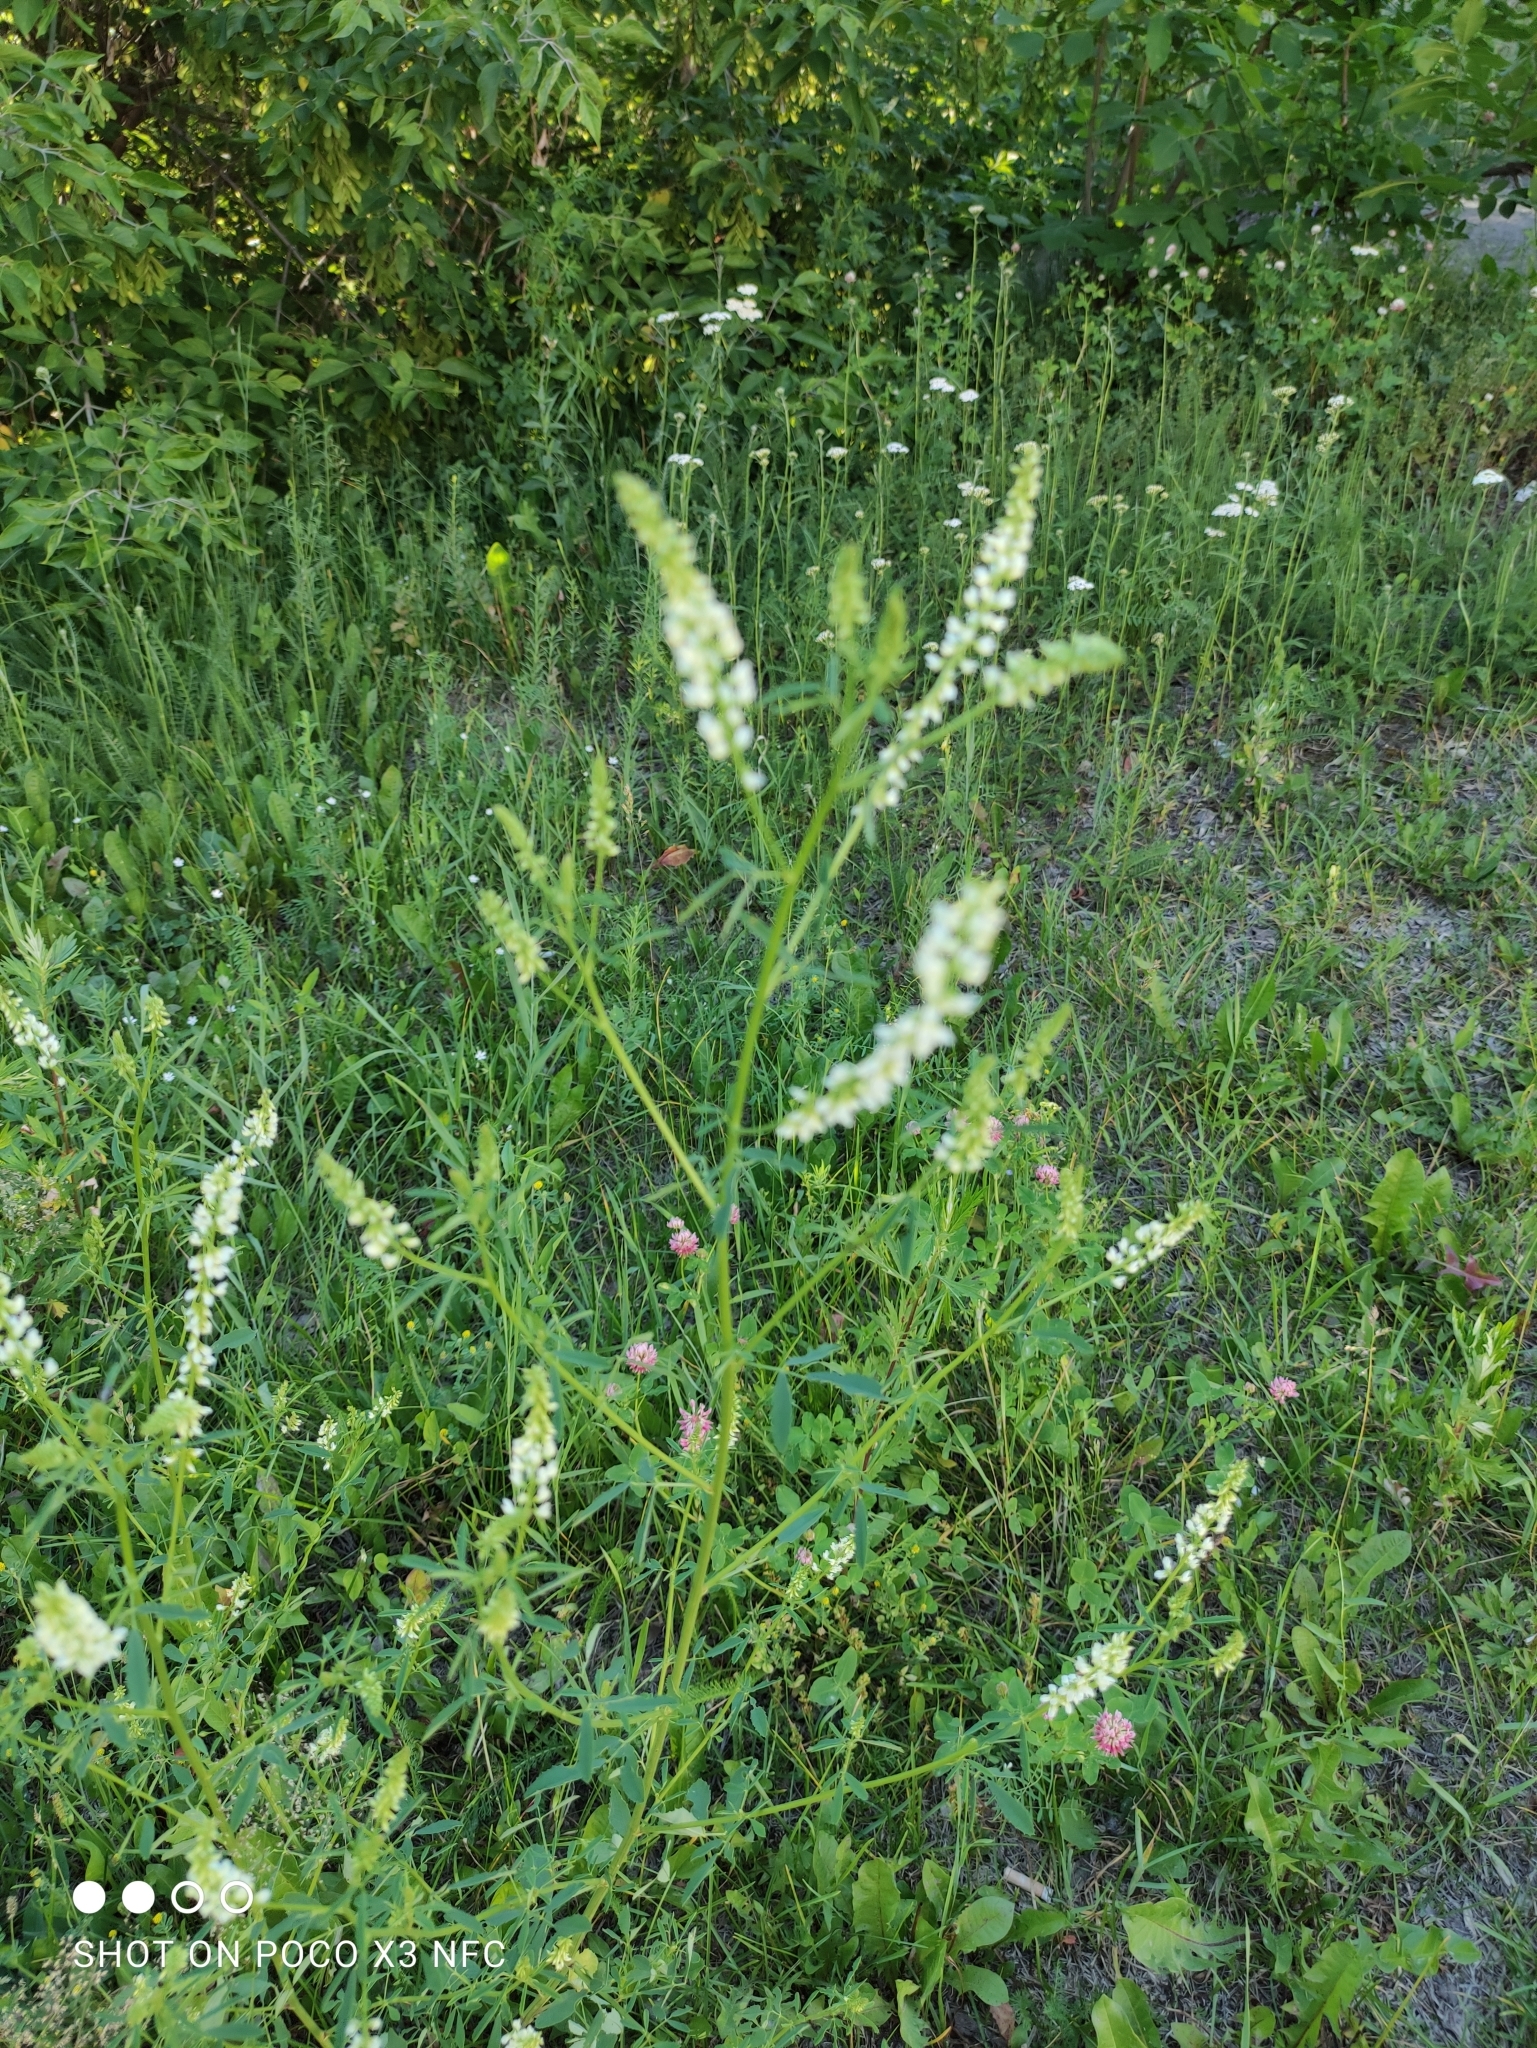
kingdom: Plantae
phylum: Tracheophyta
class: Magnoliopsida
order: Fabales
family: Fabaceae
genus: Melilotus
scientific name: Melilotus albus
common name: White melilot
